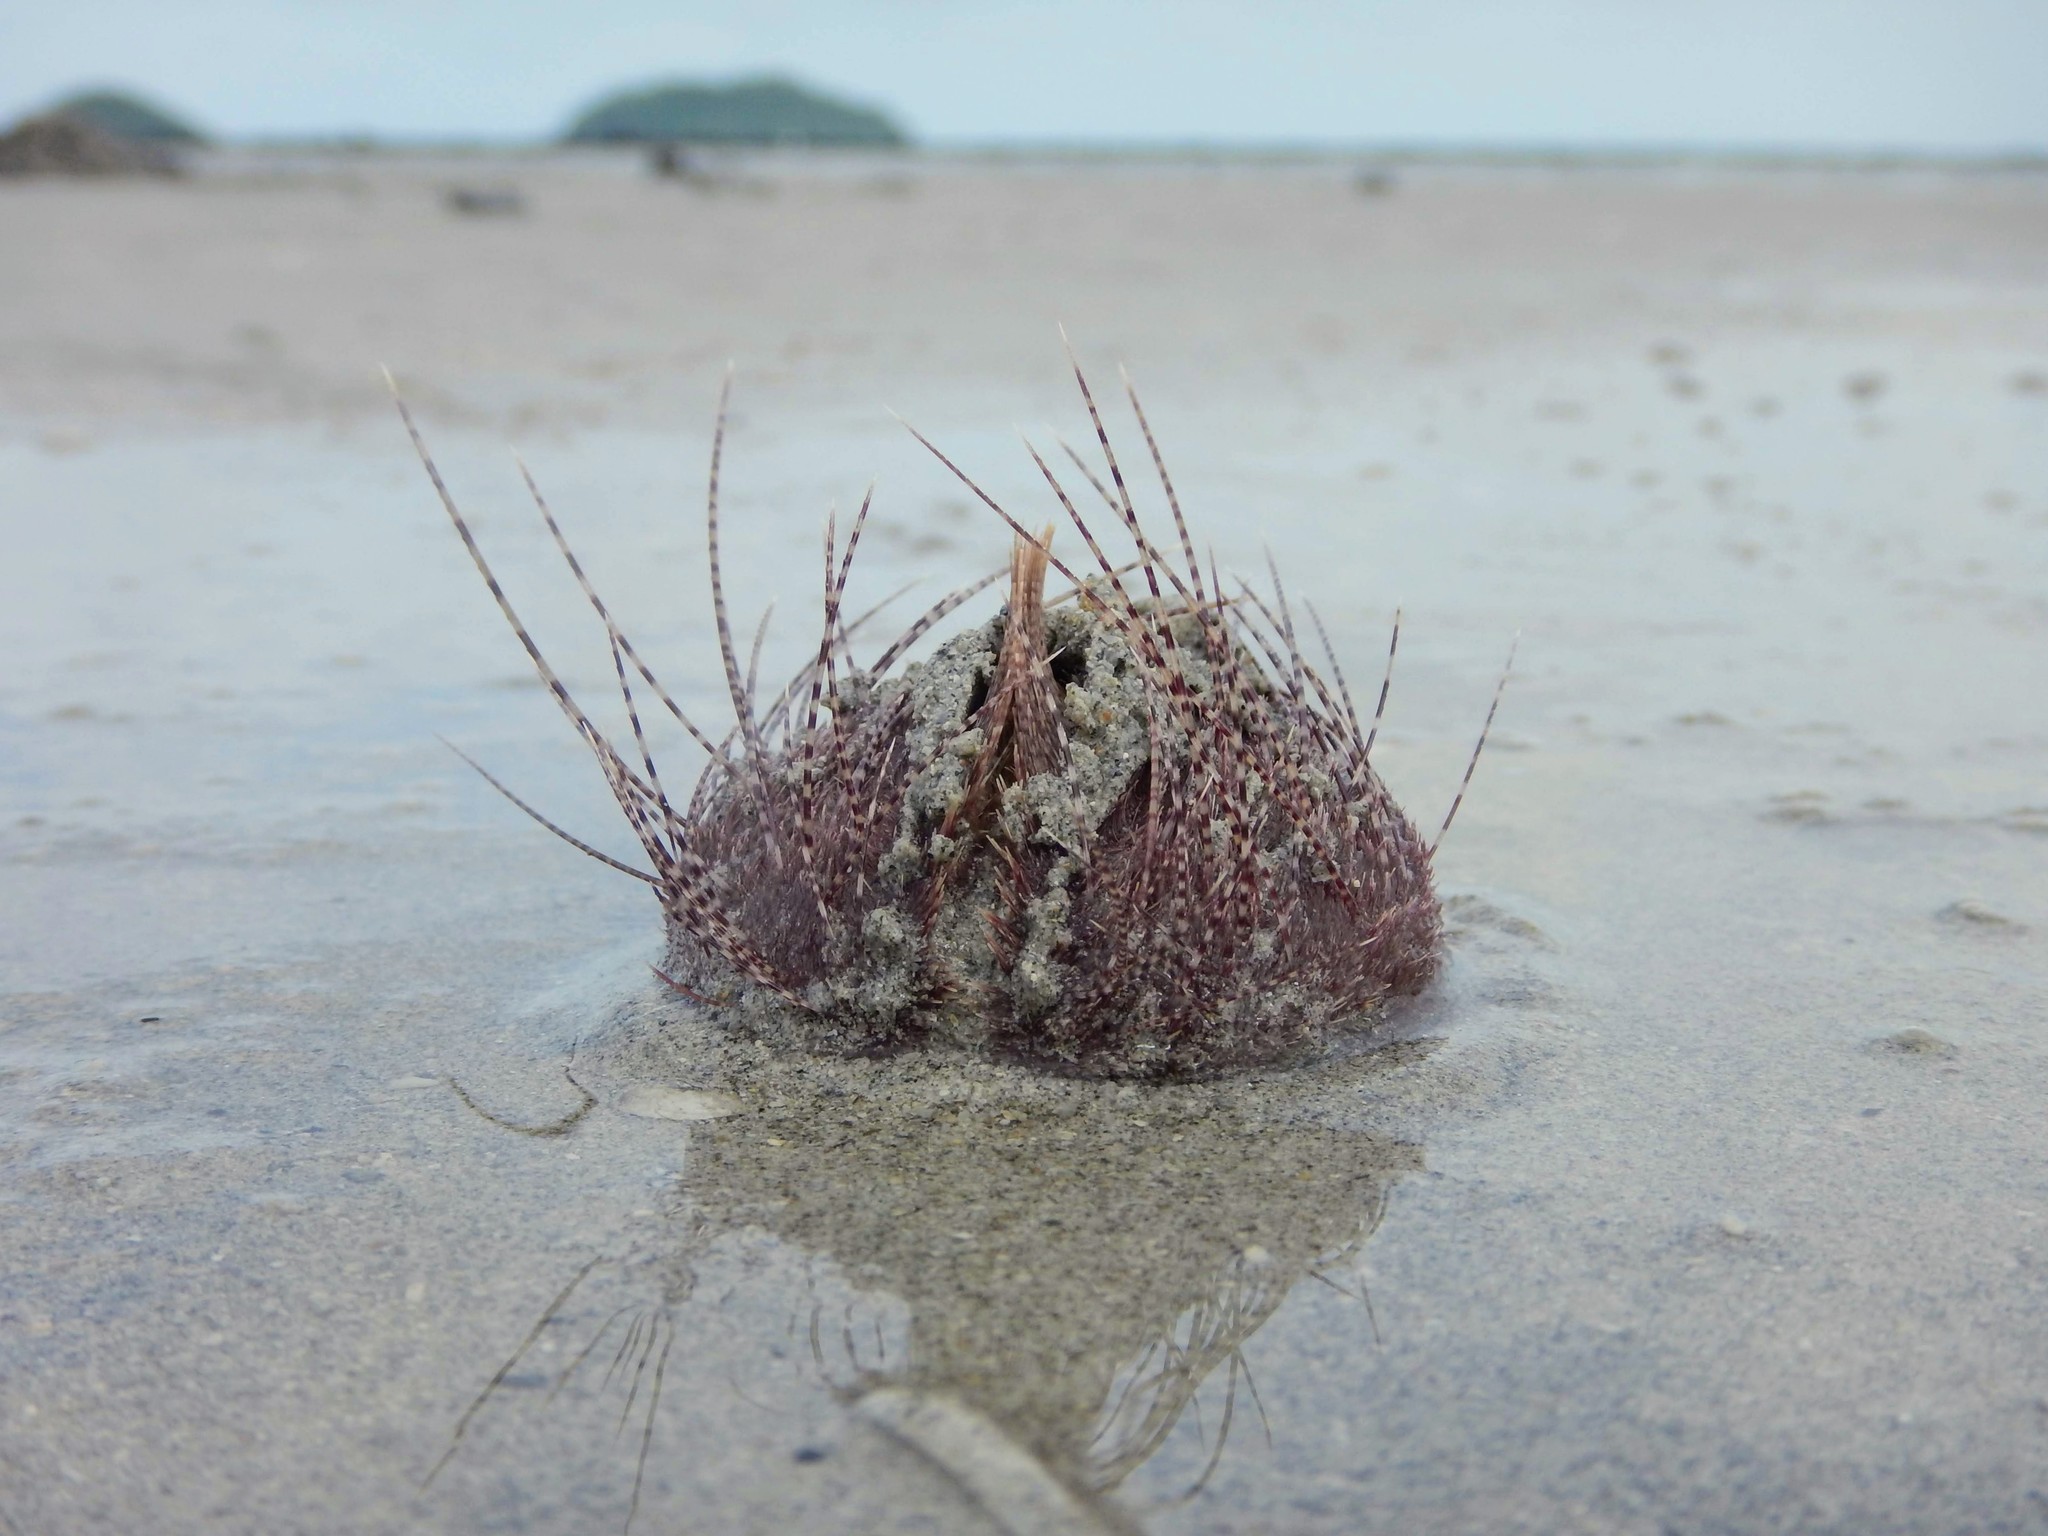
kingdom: Animalia
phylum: Echinodermata
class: Echinoidea
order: Spatangoida
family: Loveniidae
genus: Lovenia
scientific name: Lovenia elongata
